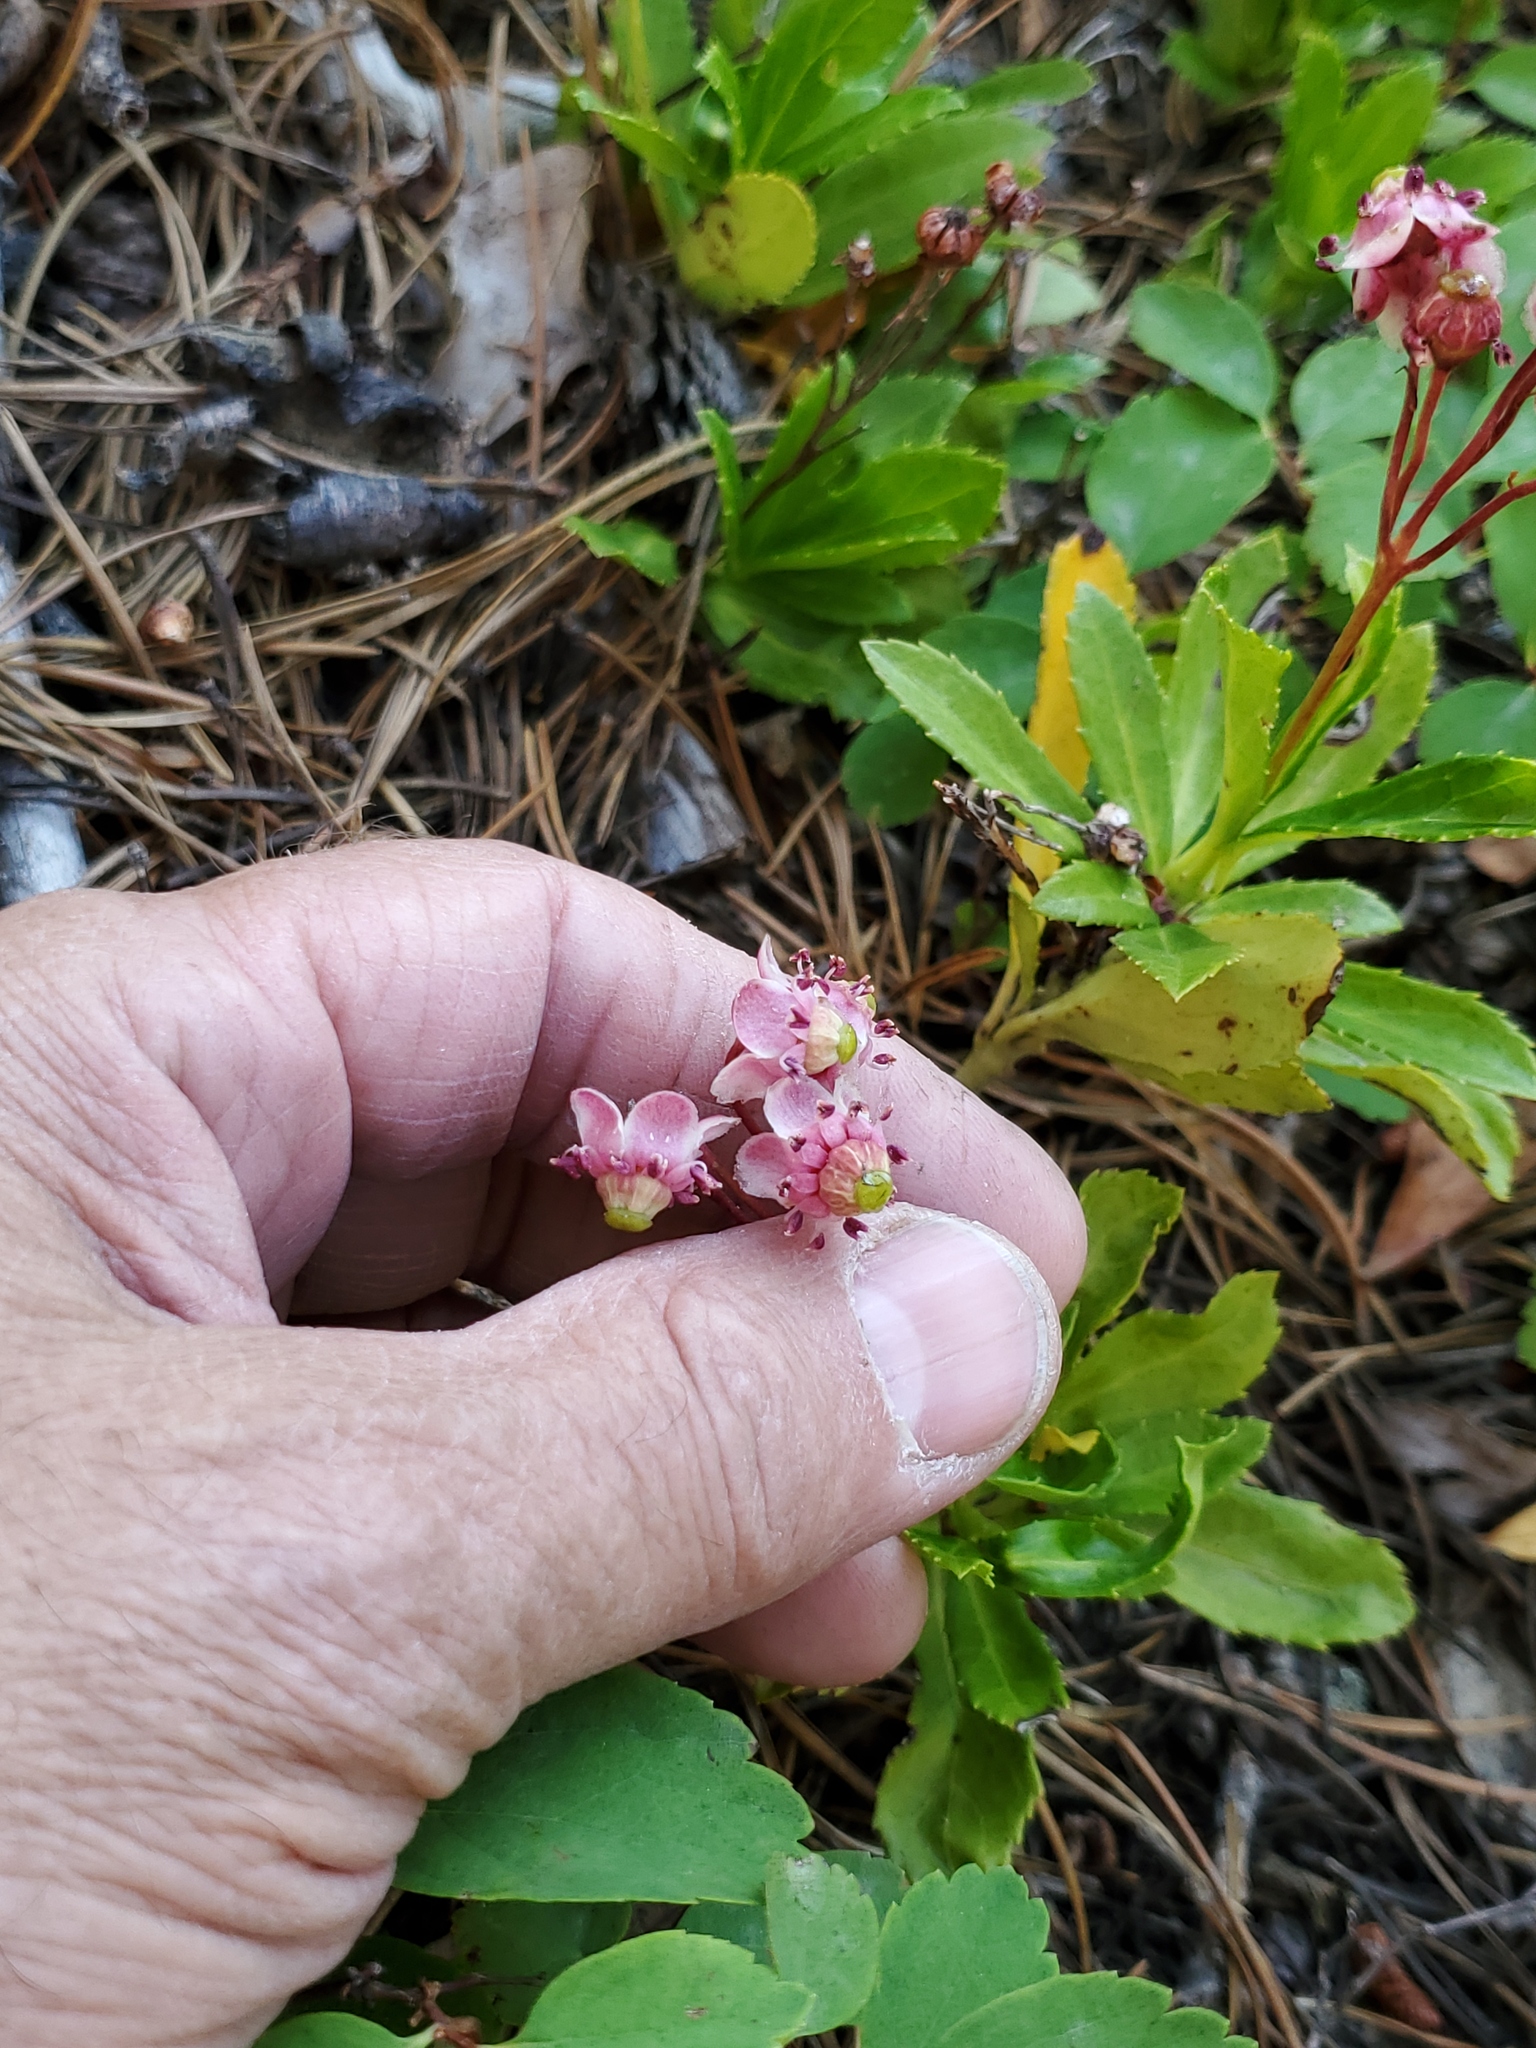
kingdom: Plantae
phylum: Tracheophyta
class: Magnoliopsida
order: Ericales
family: Ericaceae
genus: Chimaphila
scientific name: Chimaphila umbellata
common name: Pipsissewa
